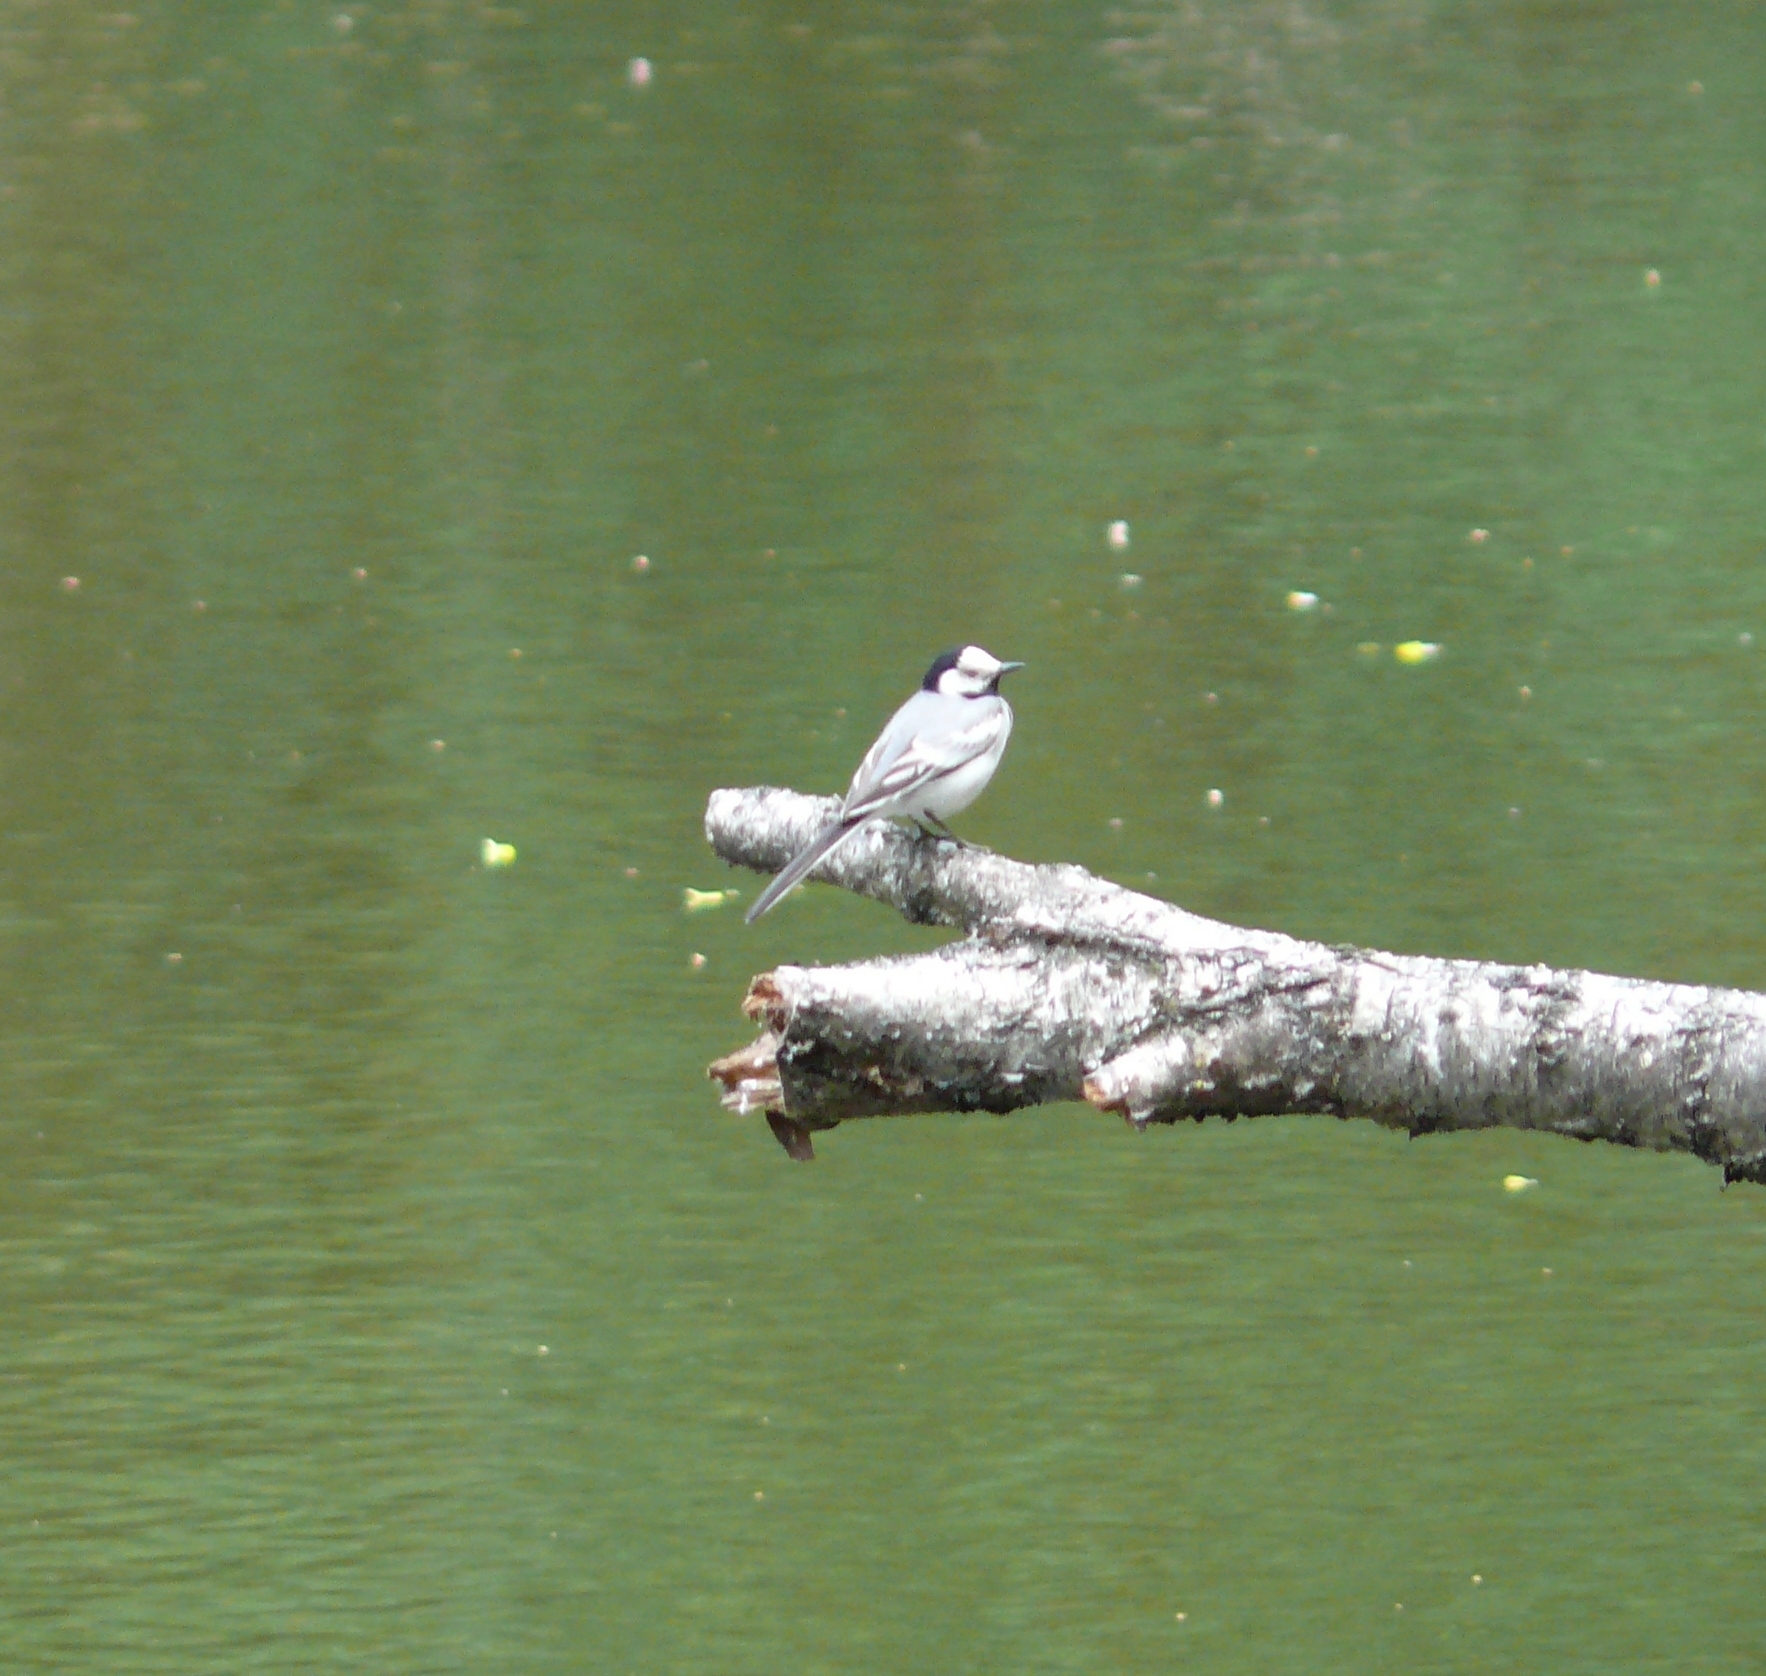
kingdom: Animalia
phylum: Chordata
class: Aves
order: Passeriformes
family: Motacillidae
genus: Motacilla
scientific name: Motacilla alba
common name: White wagtail
